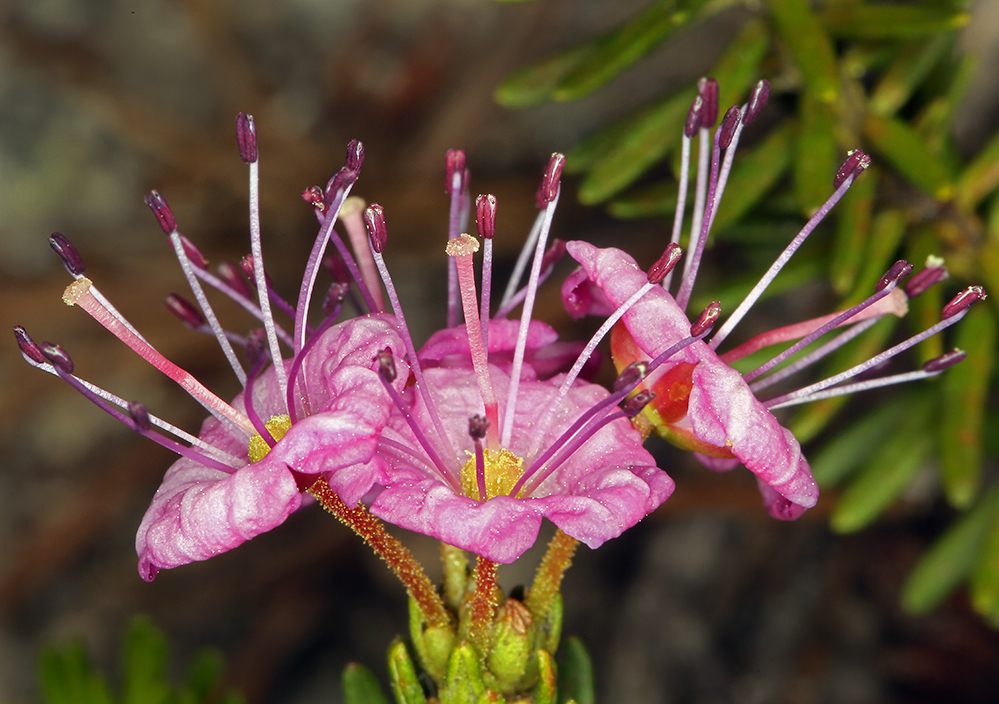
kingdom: Plantae
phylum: Tracheophyta
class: Magnoliopsida
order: Ericales
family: Ericaceae
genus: Phyllodoce
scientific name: Phyllodoce breweri
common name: Brewer's mountain-heather
